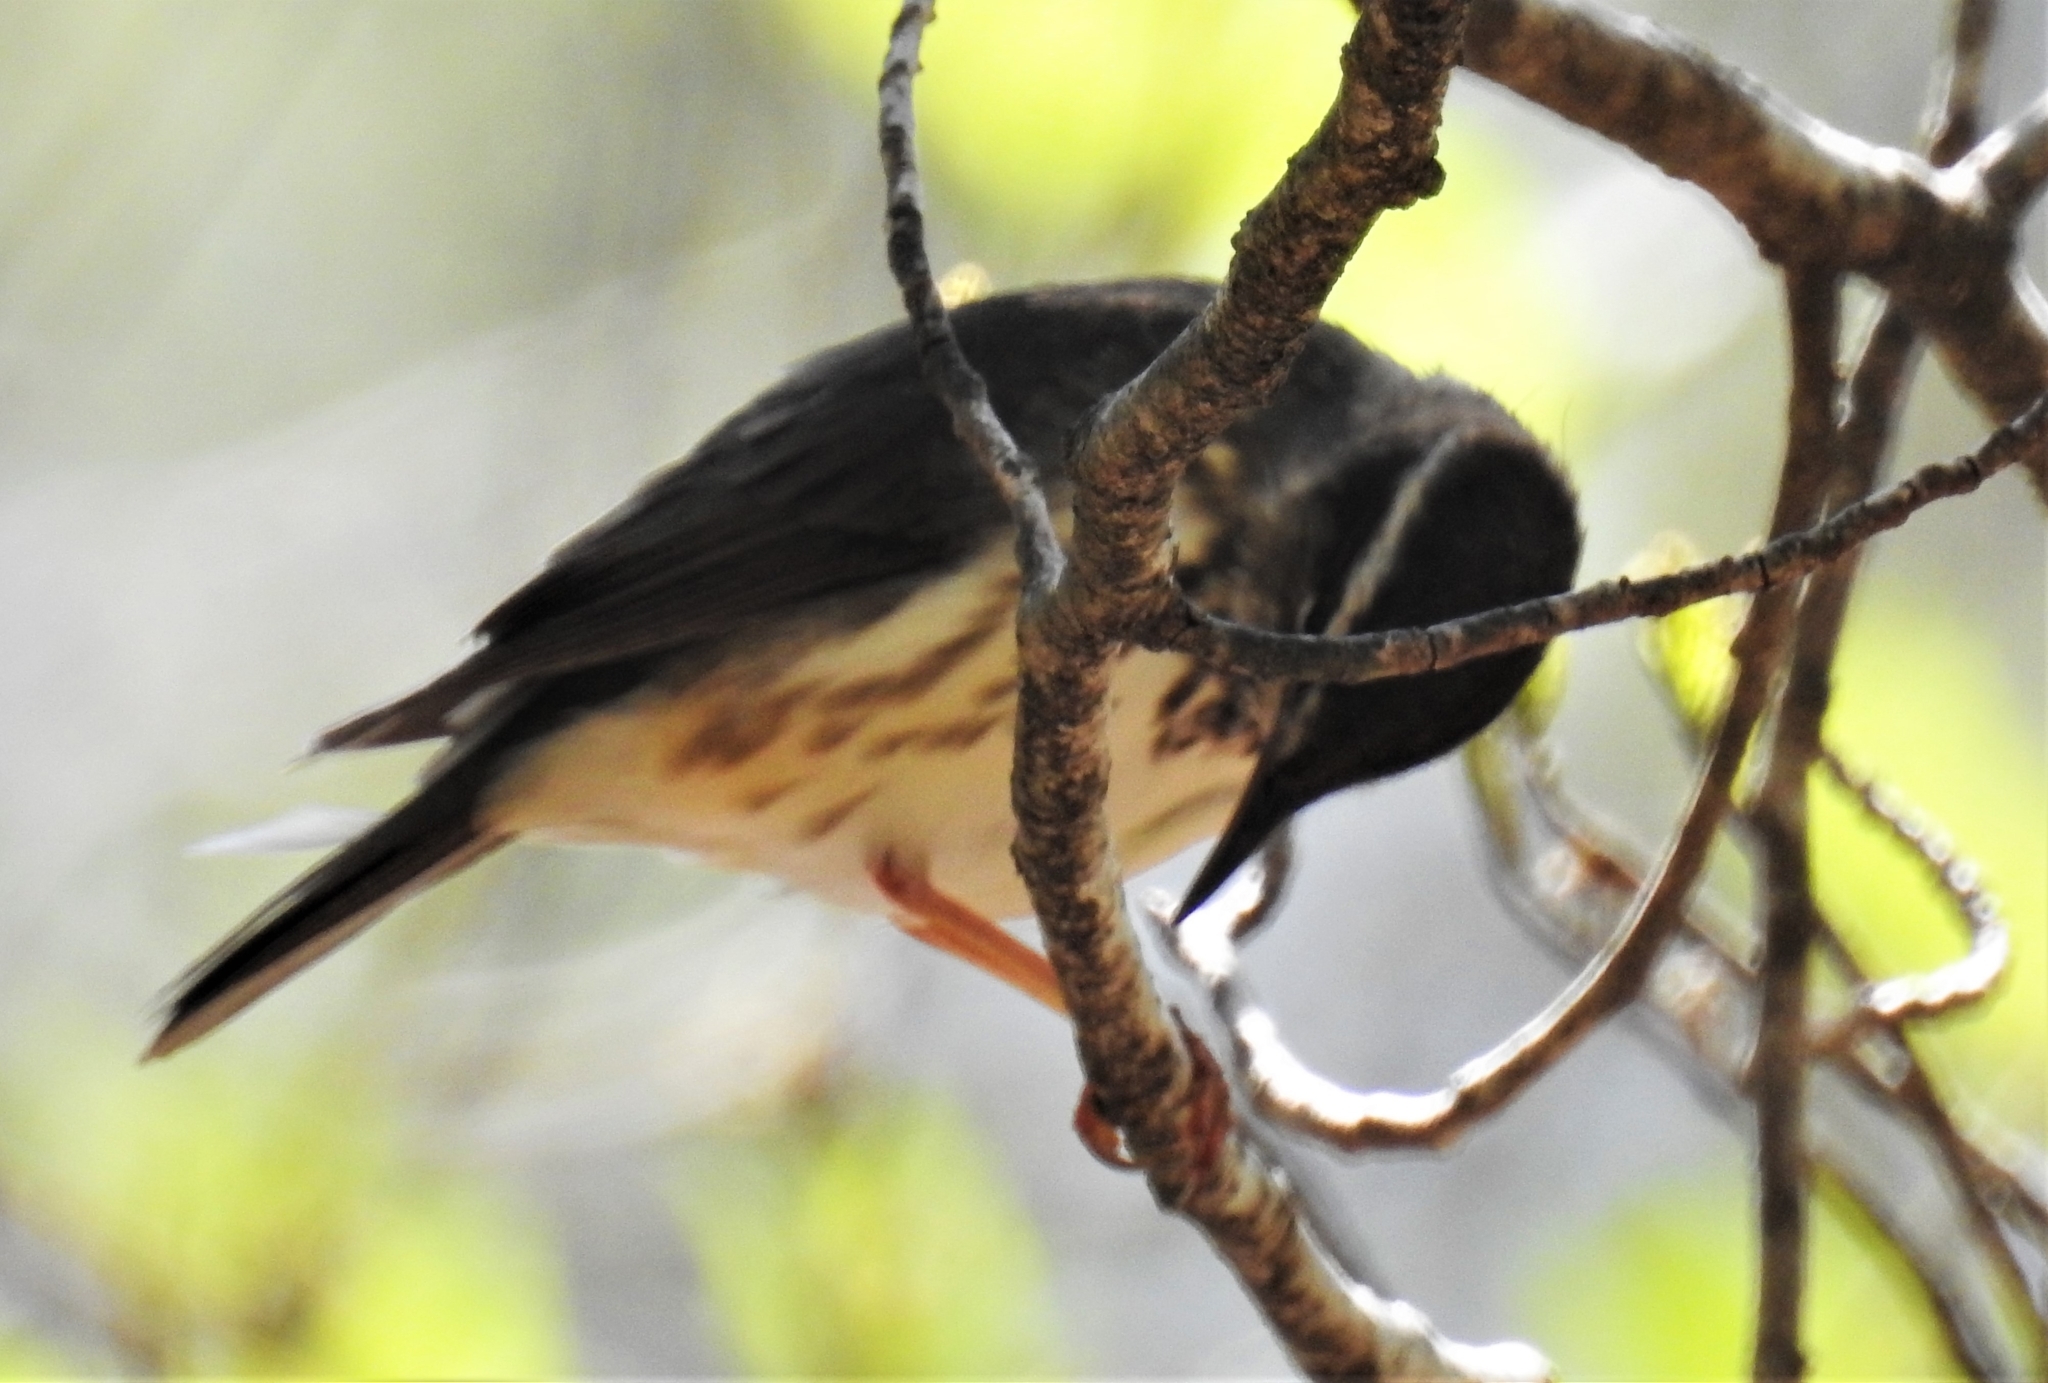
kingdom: Animalia
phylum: Chordata
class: Aves
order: Passeriformes
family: Parulidae
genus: Parkesia
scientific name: Parkesia motacilla
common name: Louisiana waterthrush
